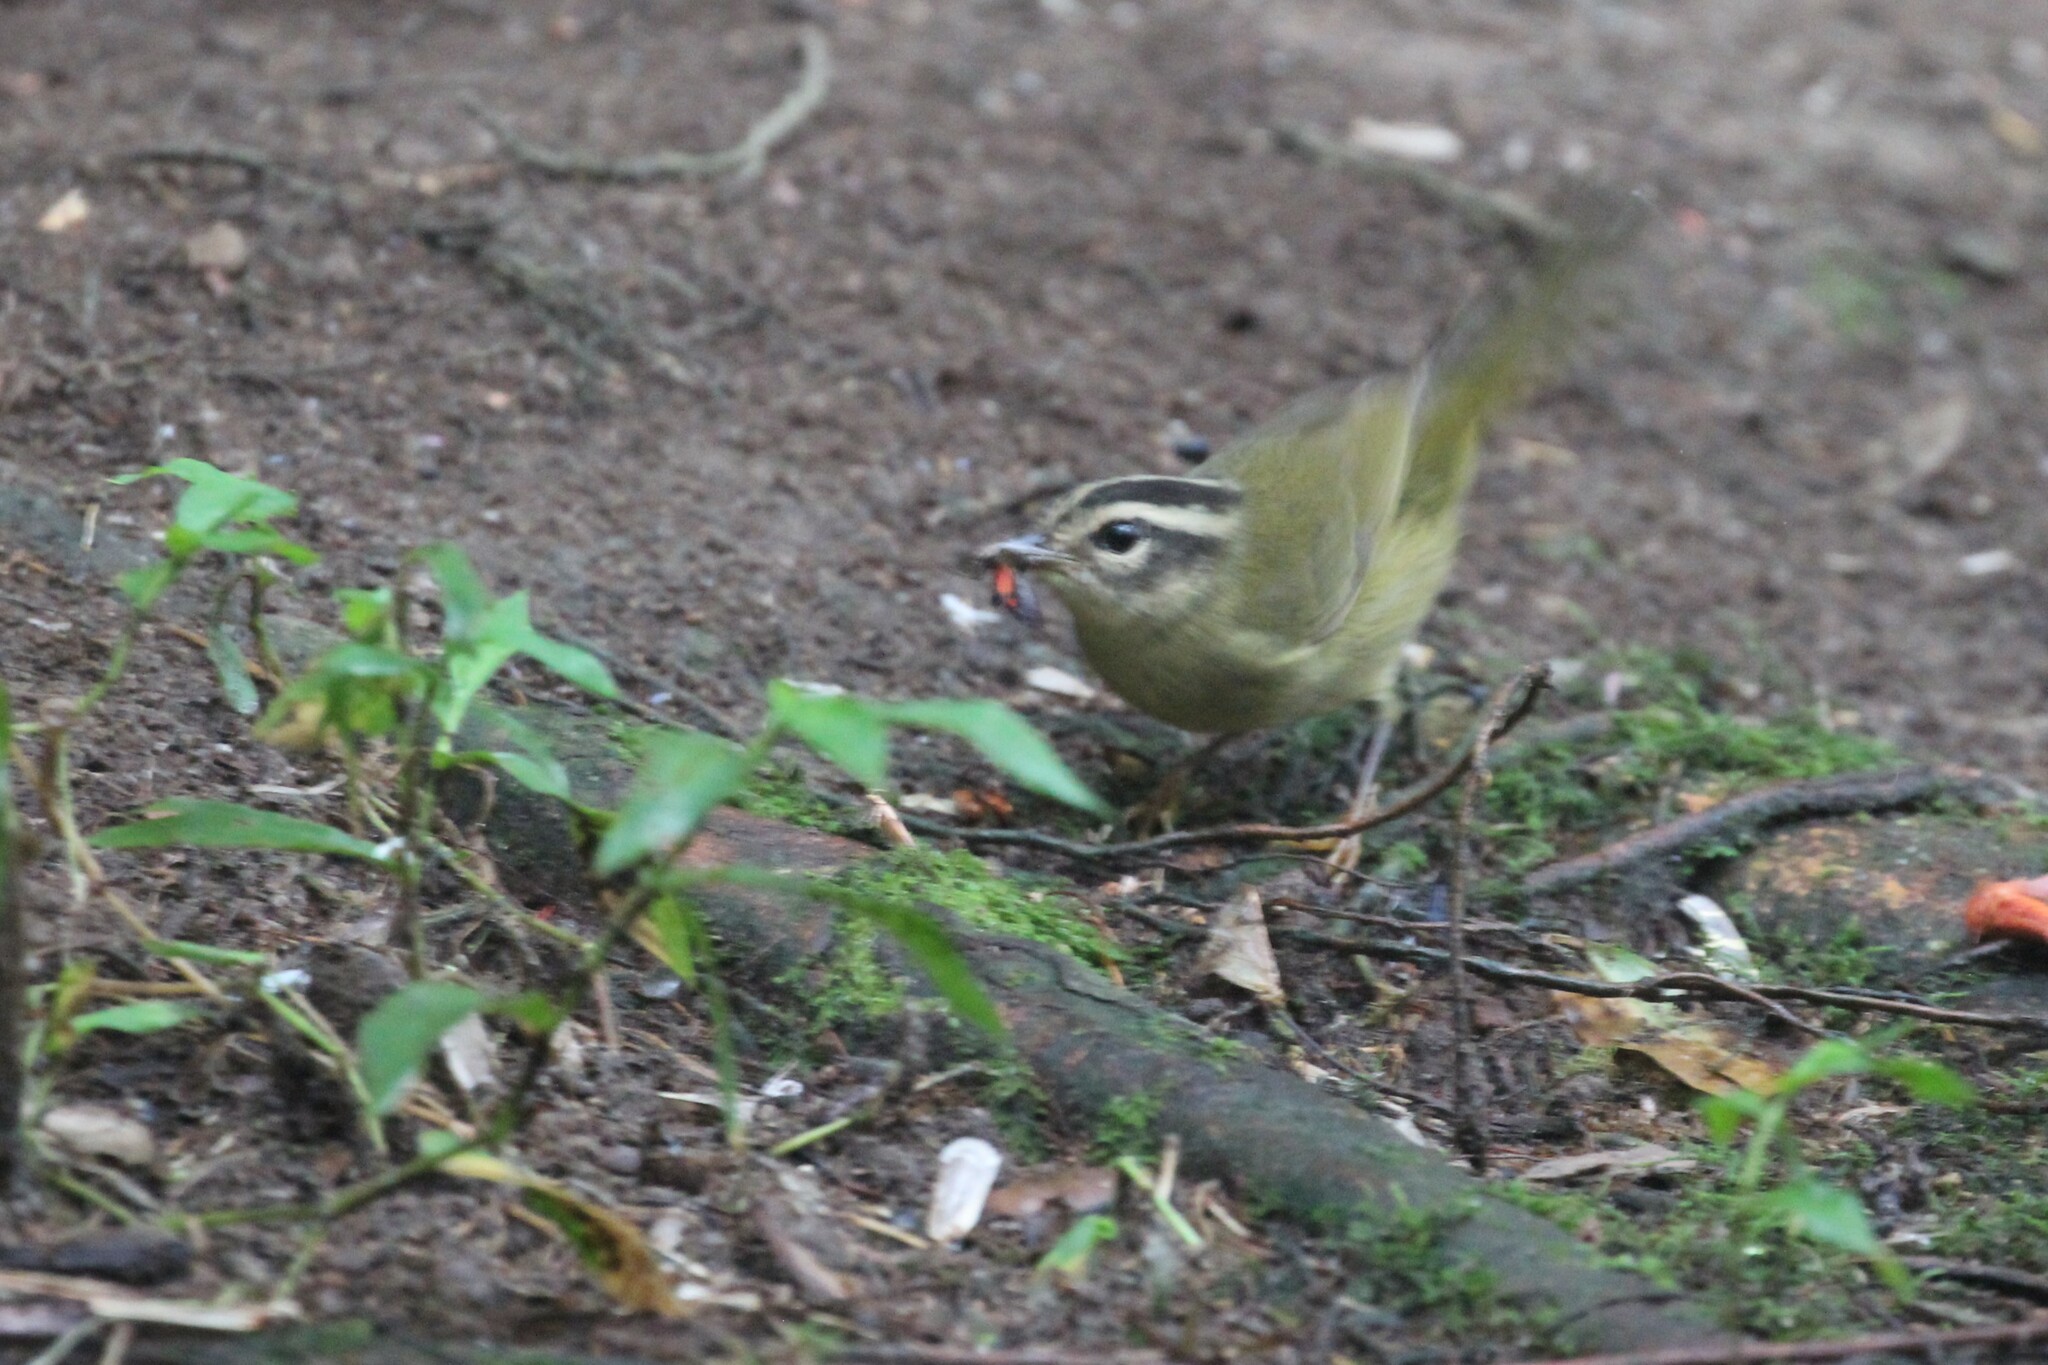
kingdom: Animalia
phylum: Chordata
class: Aves
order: Passeriformes
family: Parulidae
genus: Basileuterus
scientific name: Basileuterus tristriatus
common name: Three-striped warbler
